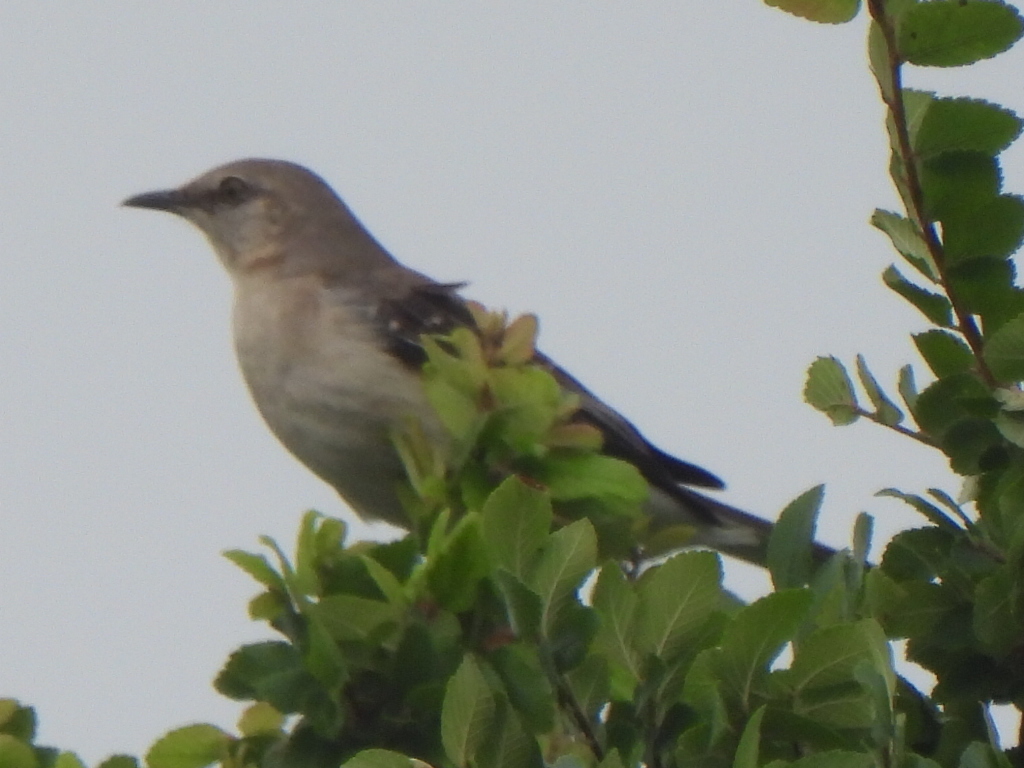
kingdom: Animalia
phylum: Chordata
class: Aves
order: Passeriformes
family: Mimidae
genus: Mimus
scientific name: Mimus polyglottos
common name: Northern mockingbird
